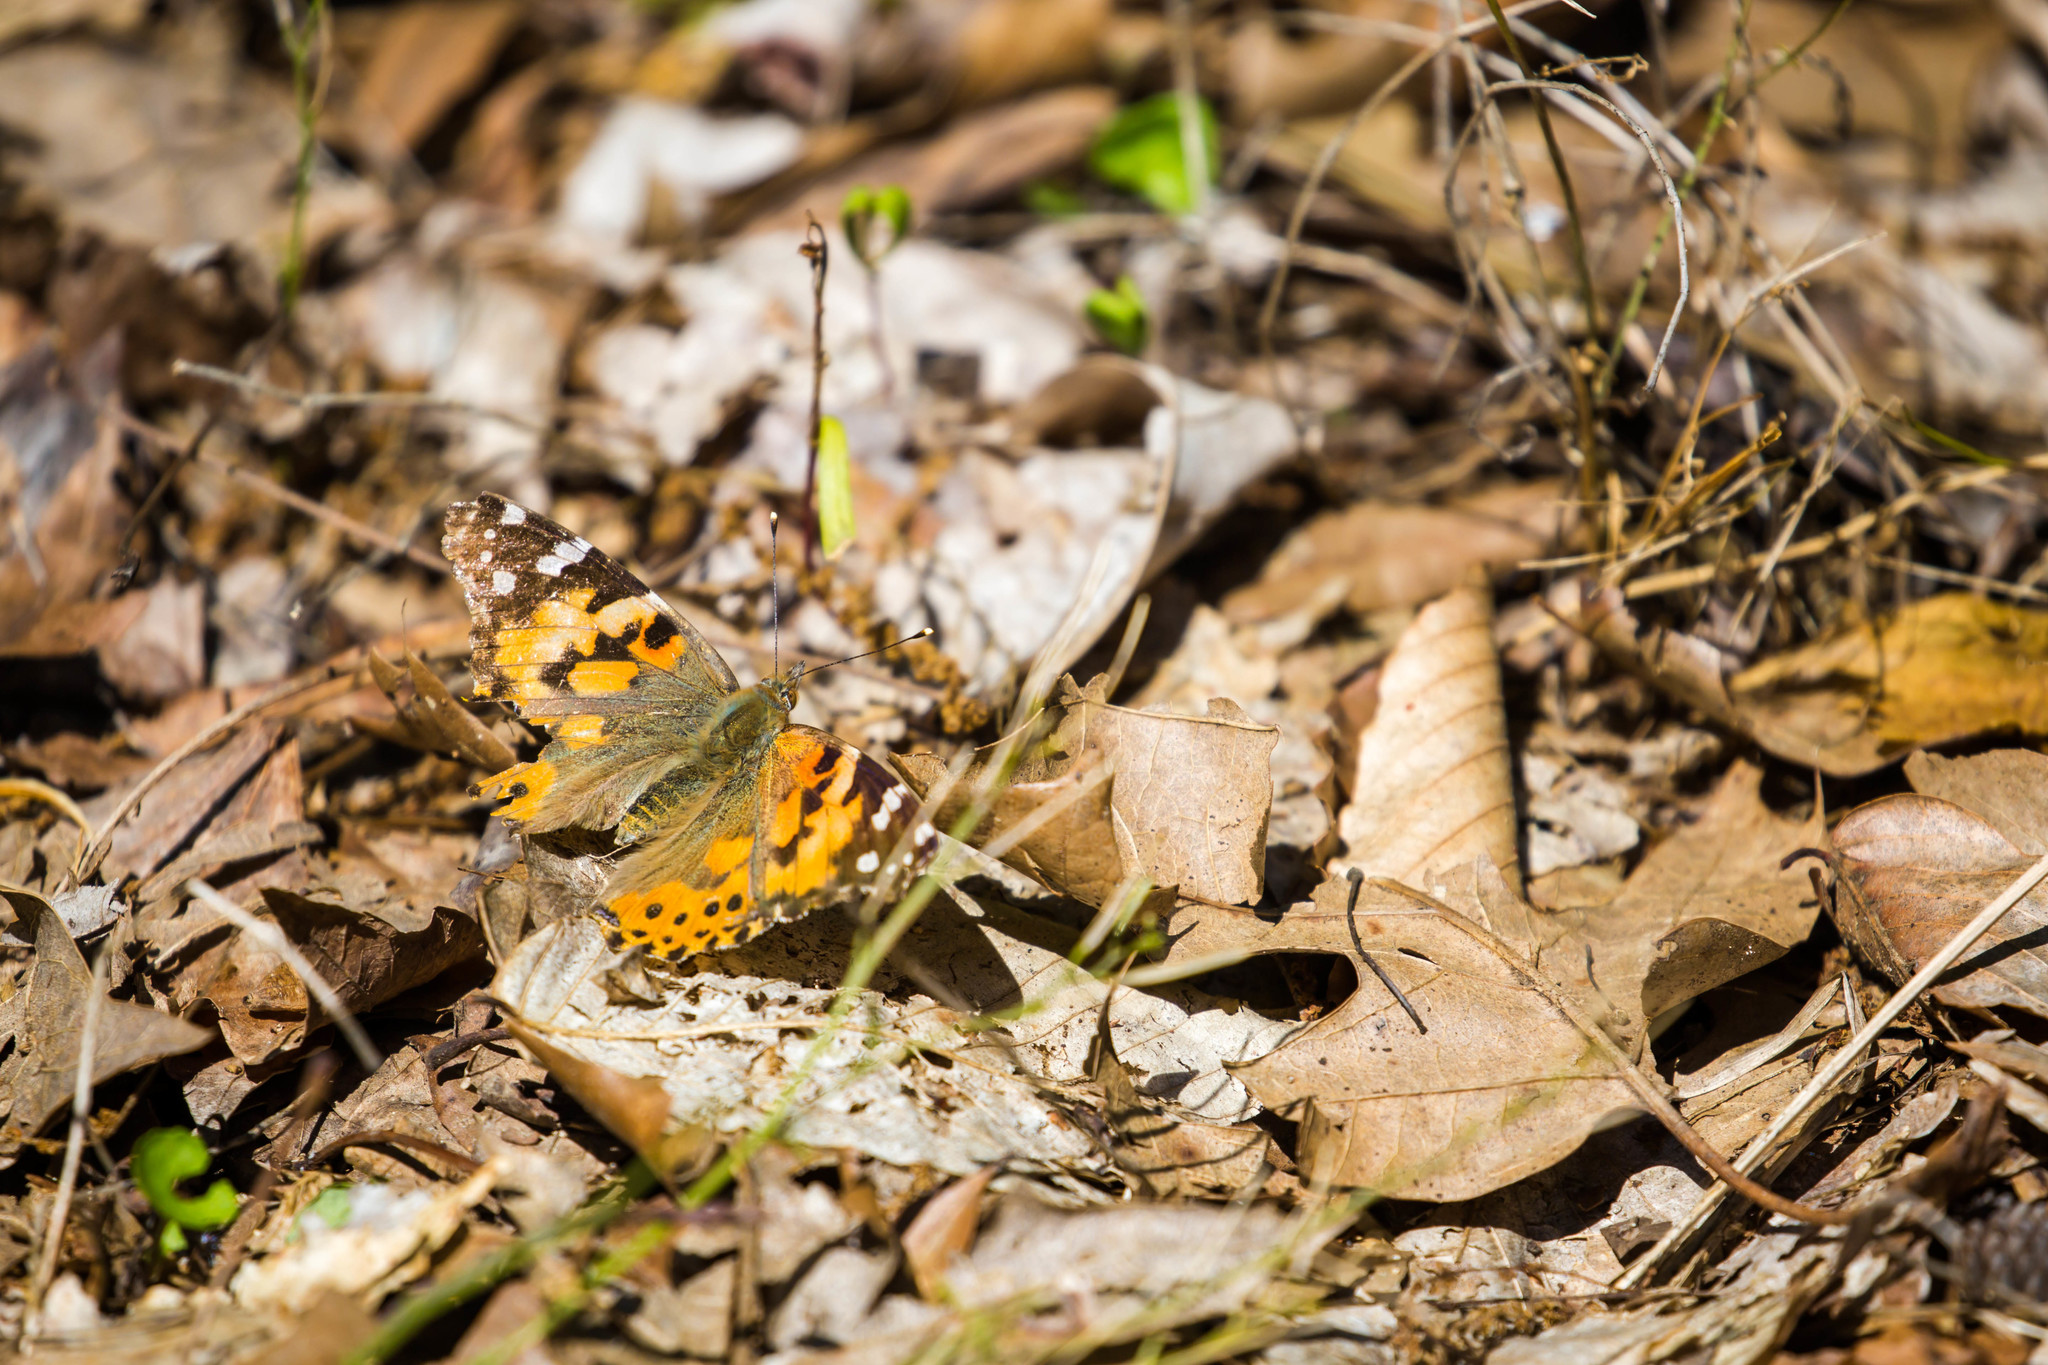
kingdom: Animalia
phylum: Arthropoda
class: Insecta
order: Lepidoptera
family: Nymphalidae
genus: Vanessa
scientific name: Vanessa cardui
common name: Painted lady
